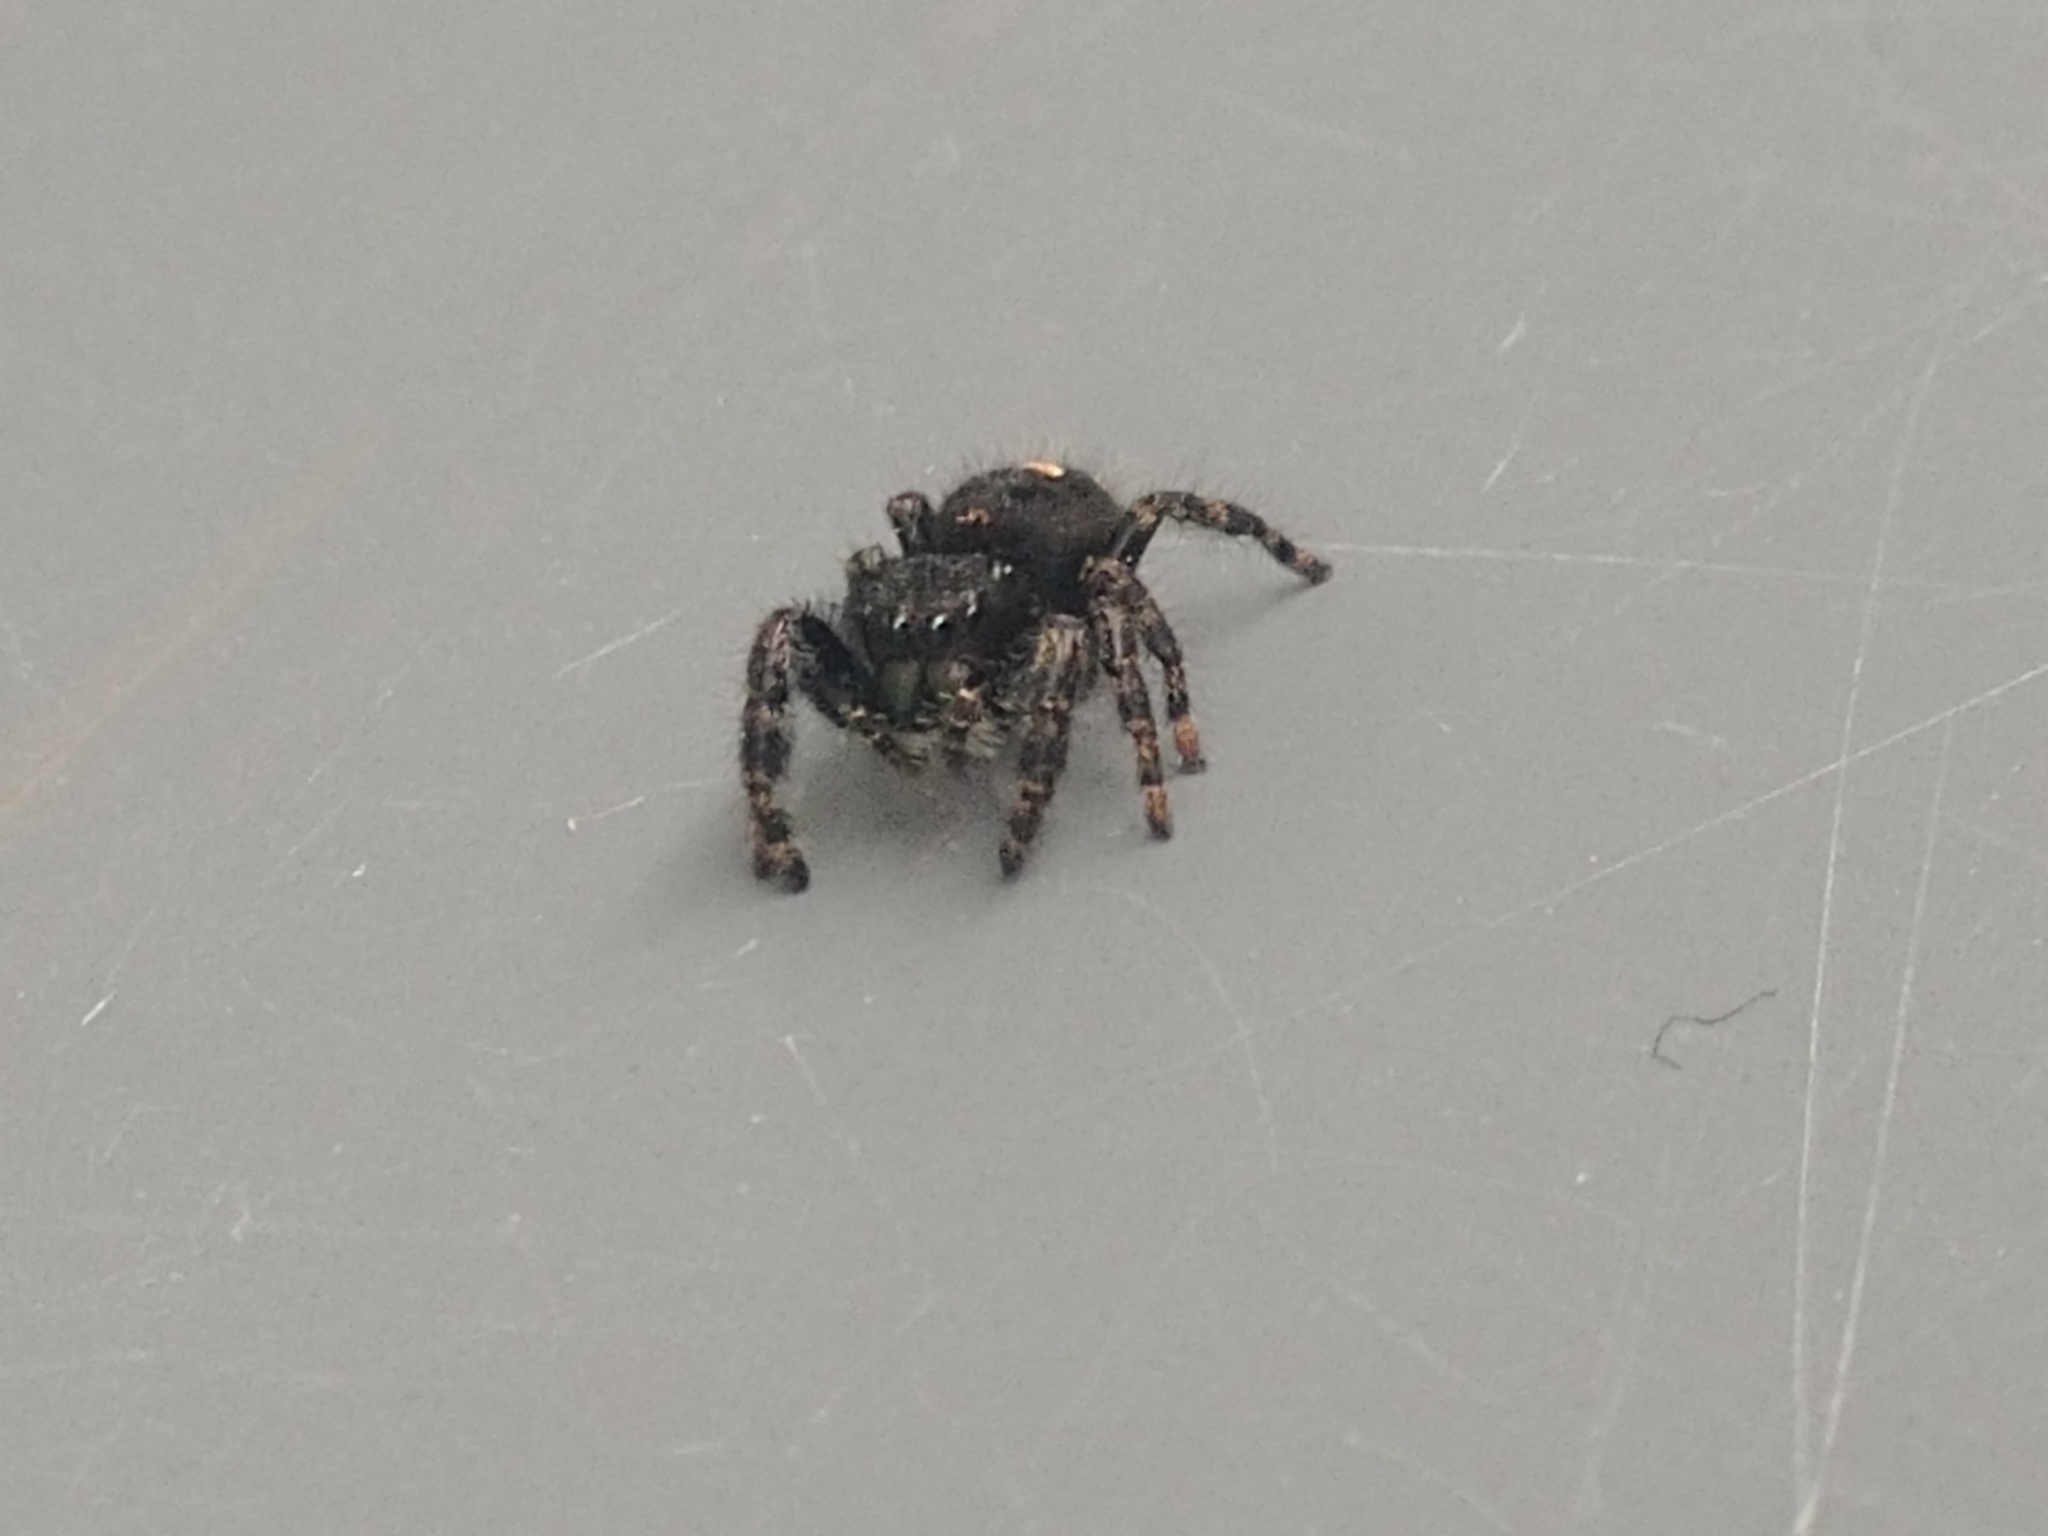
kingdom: Animalia
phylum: Arthropoda
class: Arachnida
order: Araneae
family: Salticidae
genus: Phidippus
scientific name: Phidippus audax
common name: Bold jumper
